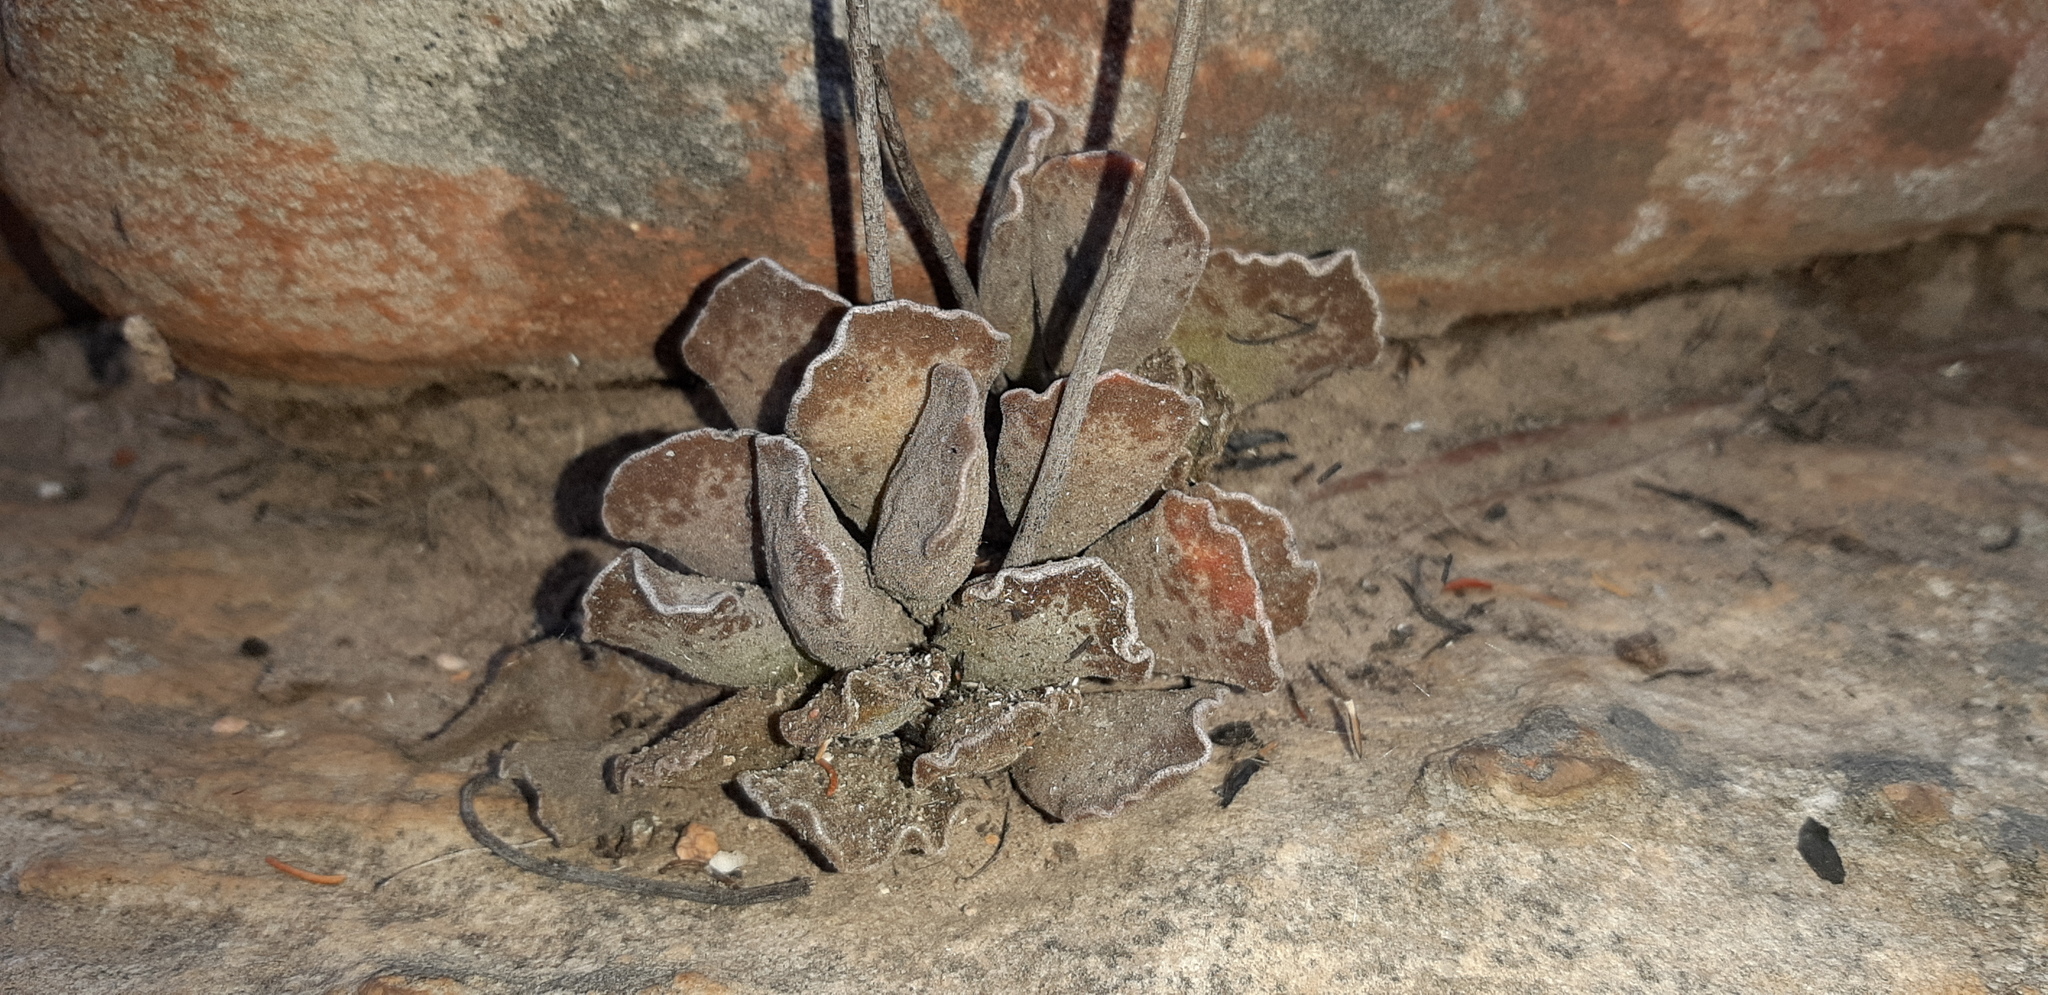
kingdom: Plantae
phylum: Tracheophyta
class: Magnoliopsida
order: Saxifragales
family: Crassulaceae
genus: Adromischus
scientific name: Adromischus cristatus
